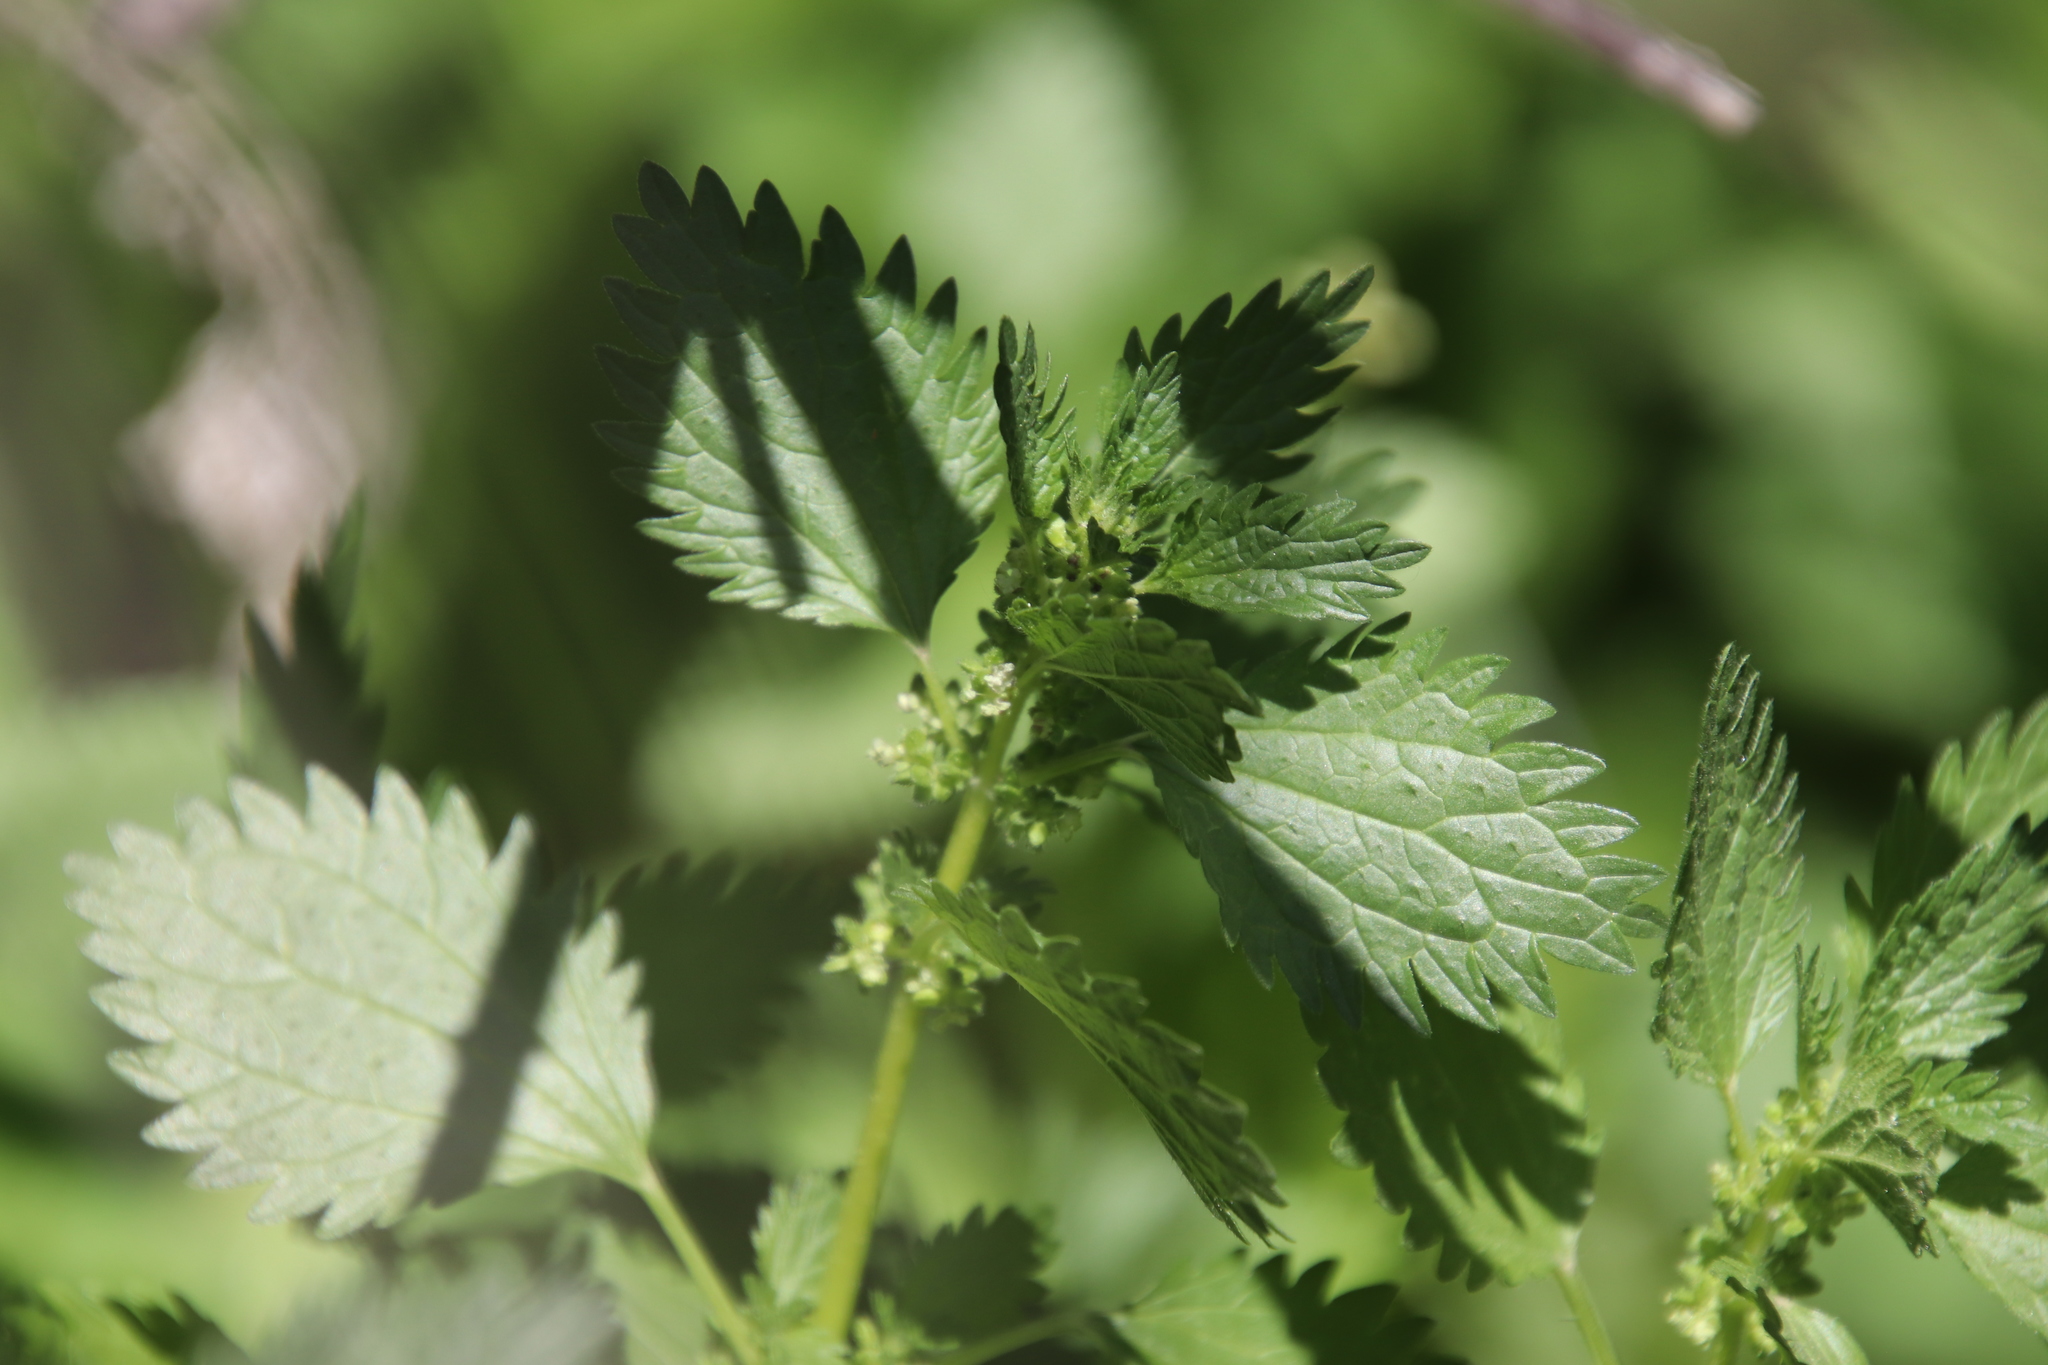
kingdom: Plantae
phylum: Tracheophyta
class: Magnoliopsida
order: Rosales
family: Urticaceae
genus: Urtica
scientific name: Urtica urens
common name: Dwarf nettle
